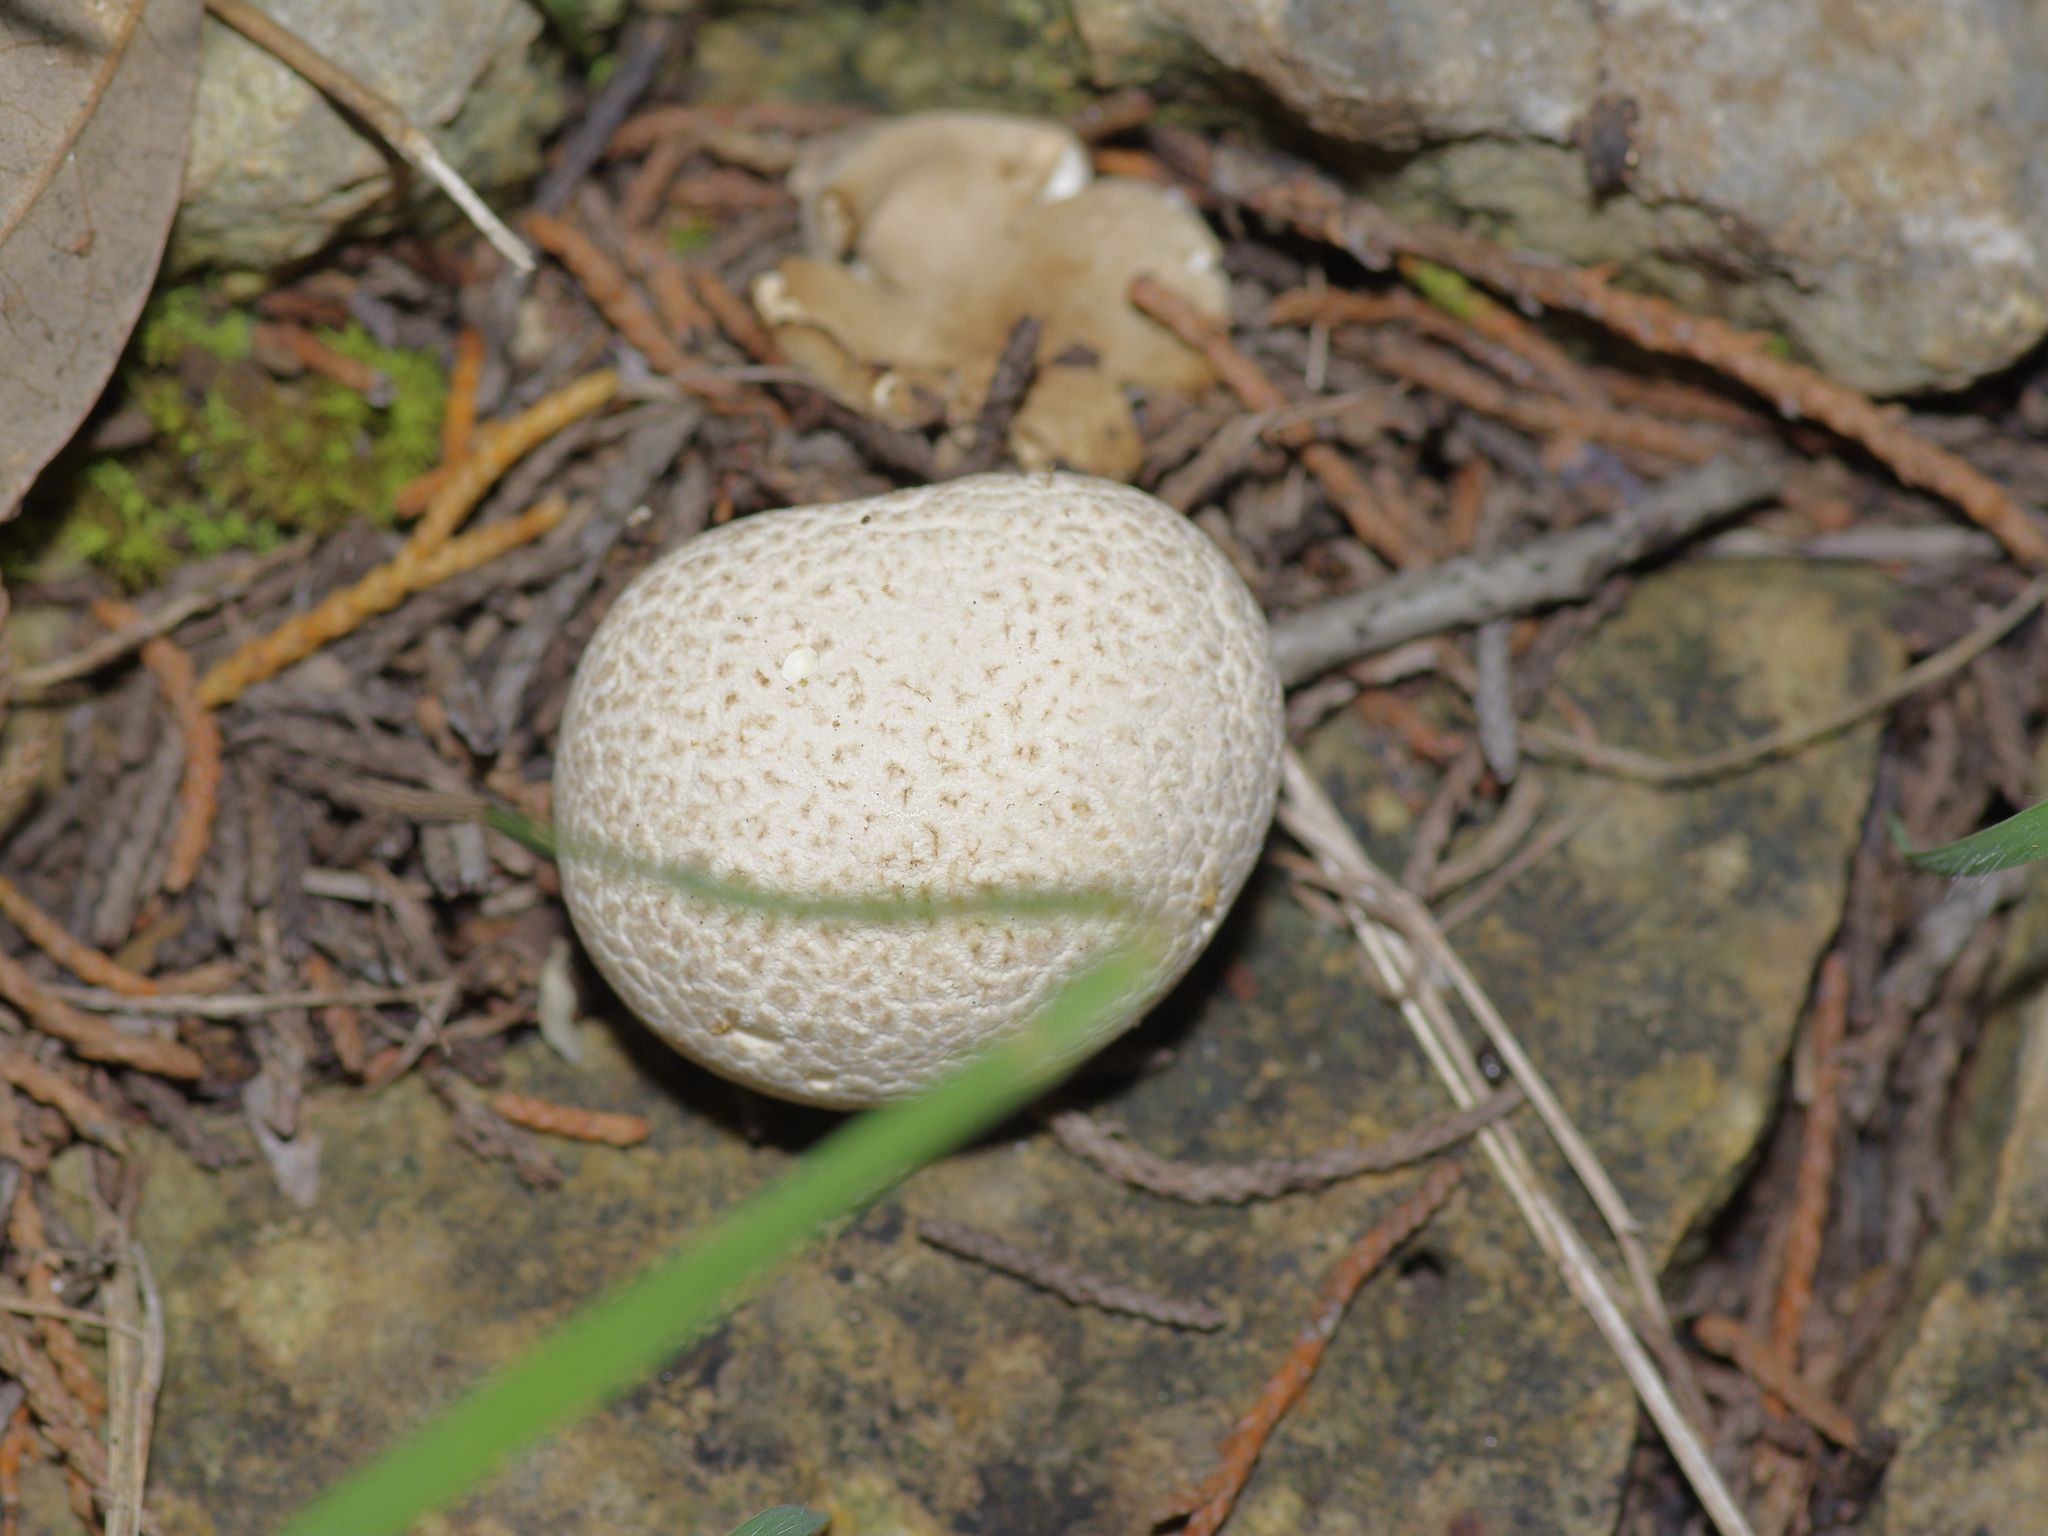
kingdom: Fungi
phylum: Basidiomycota
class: Agaricomycetes
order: Agaricales
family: Lycoperdaceae
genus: Lycoperdon
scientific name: Lycoperdon perlatum
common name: Common puffball
